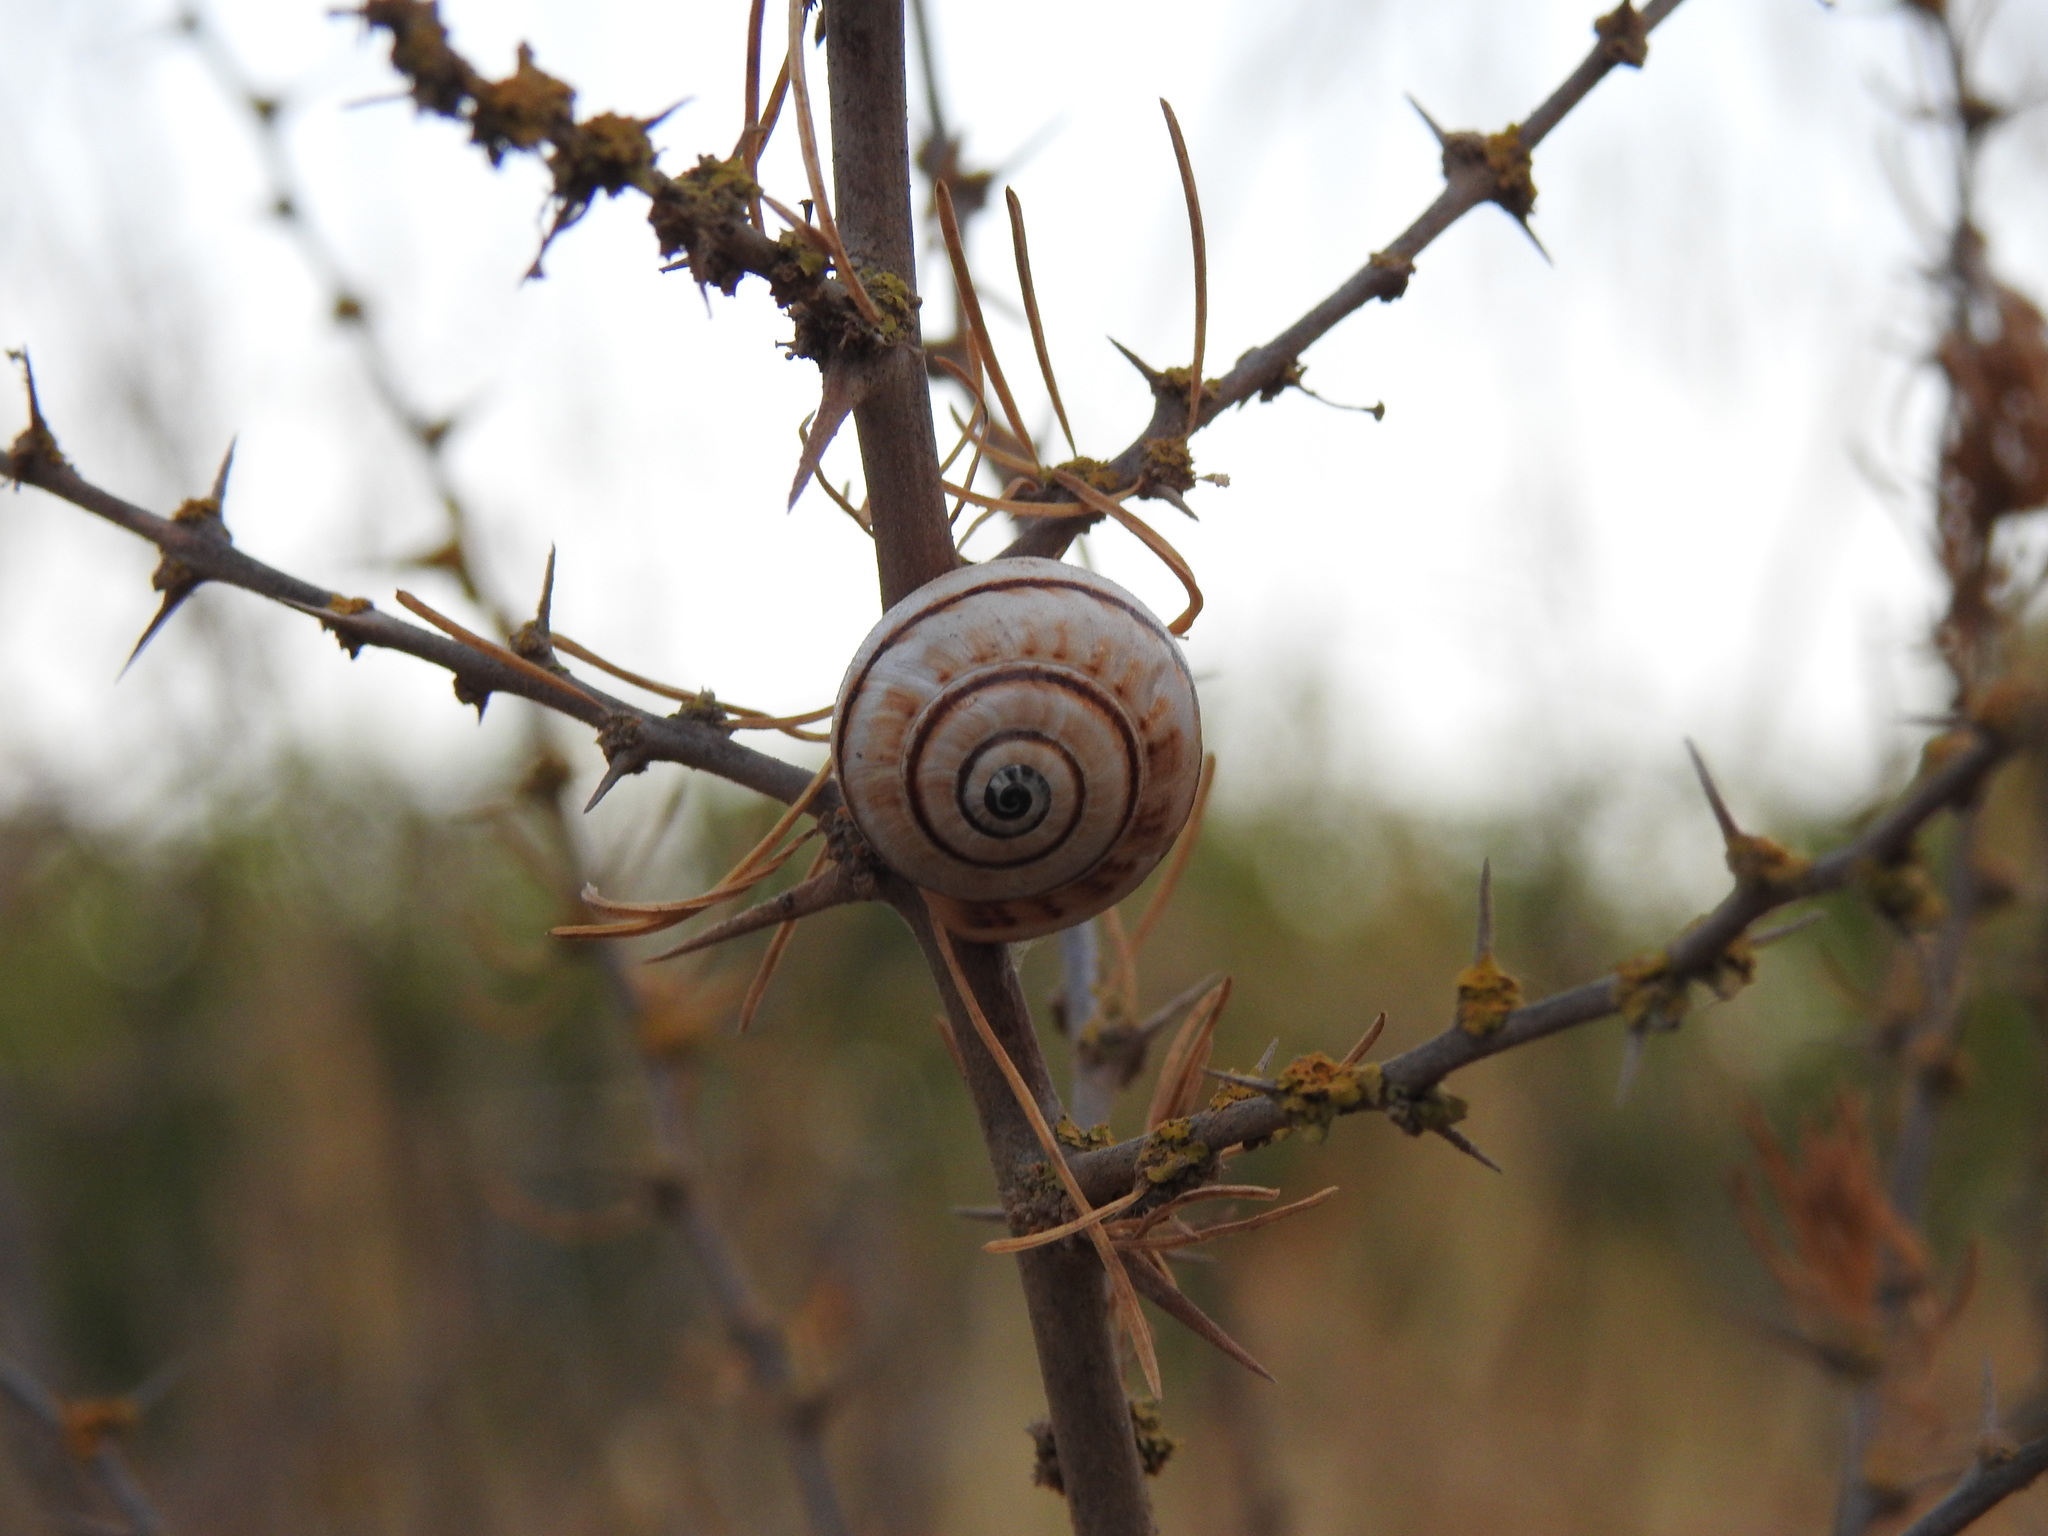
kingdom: Animalia
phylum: Mollusca
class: Gastropoda
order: Stylommatophora
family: Helicidae
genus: Theba
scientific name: Theba pisana
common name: White snail
